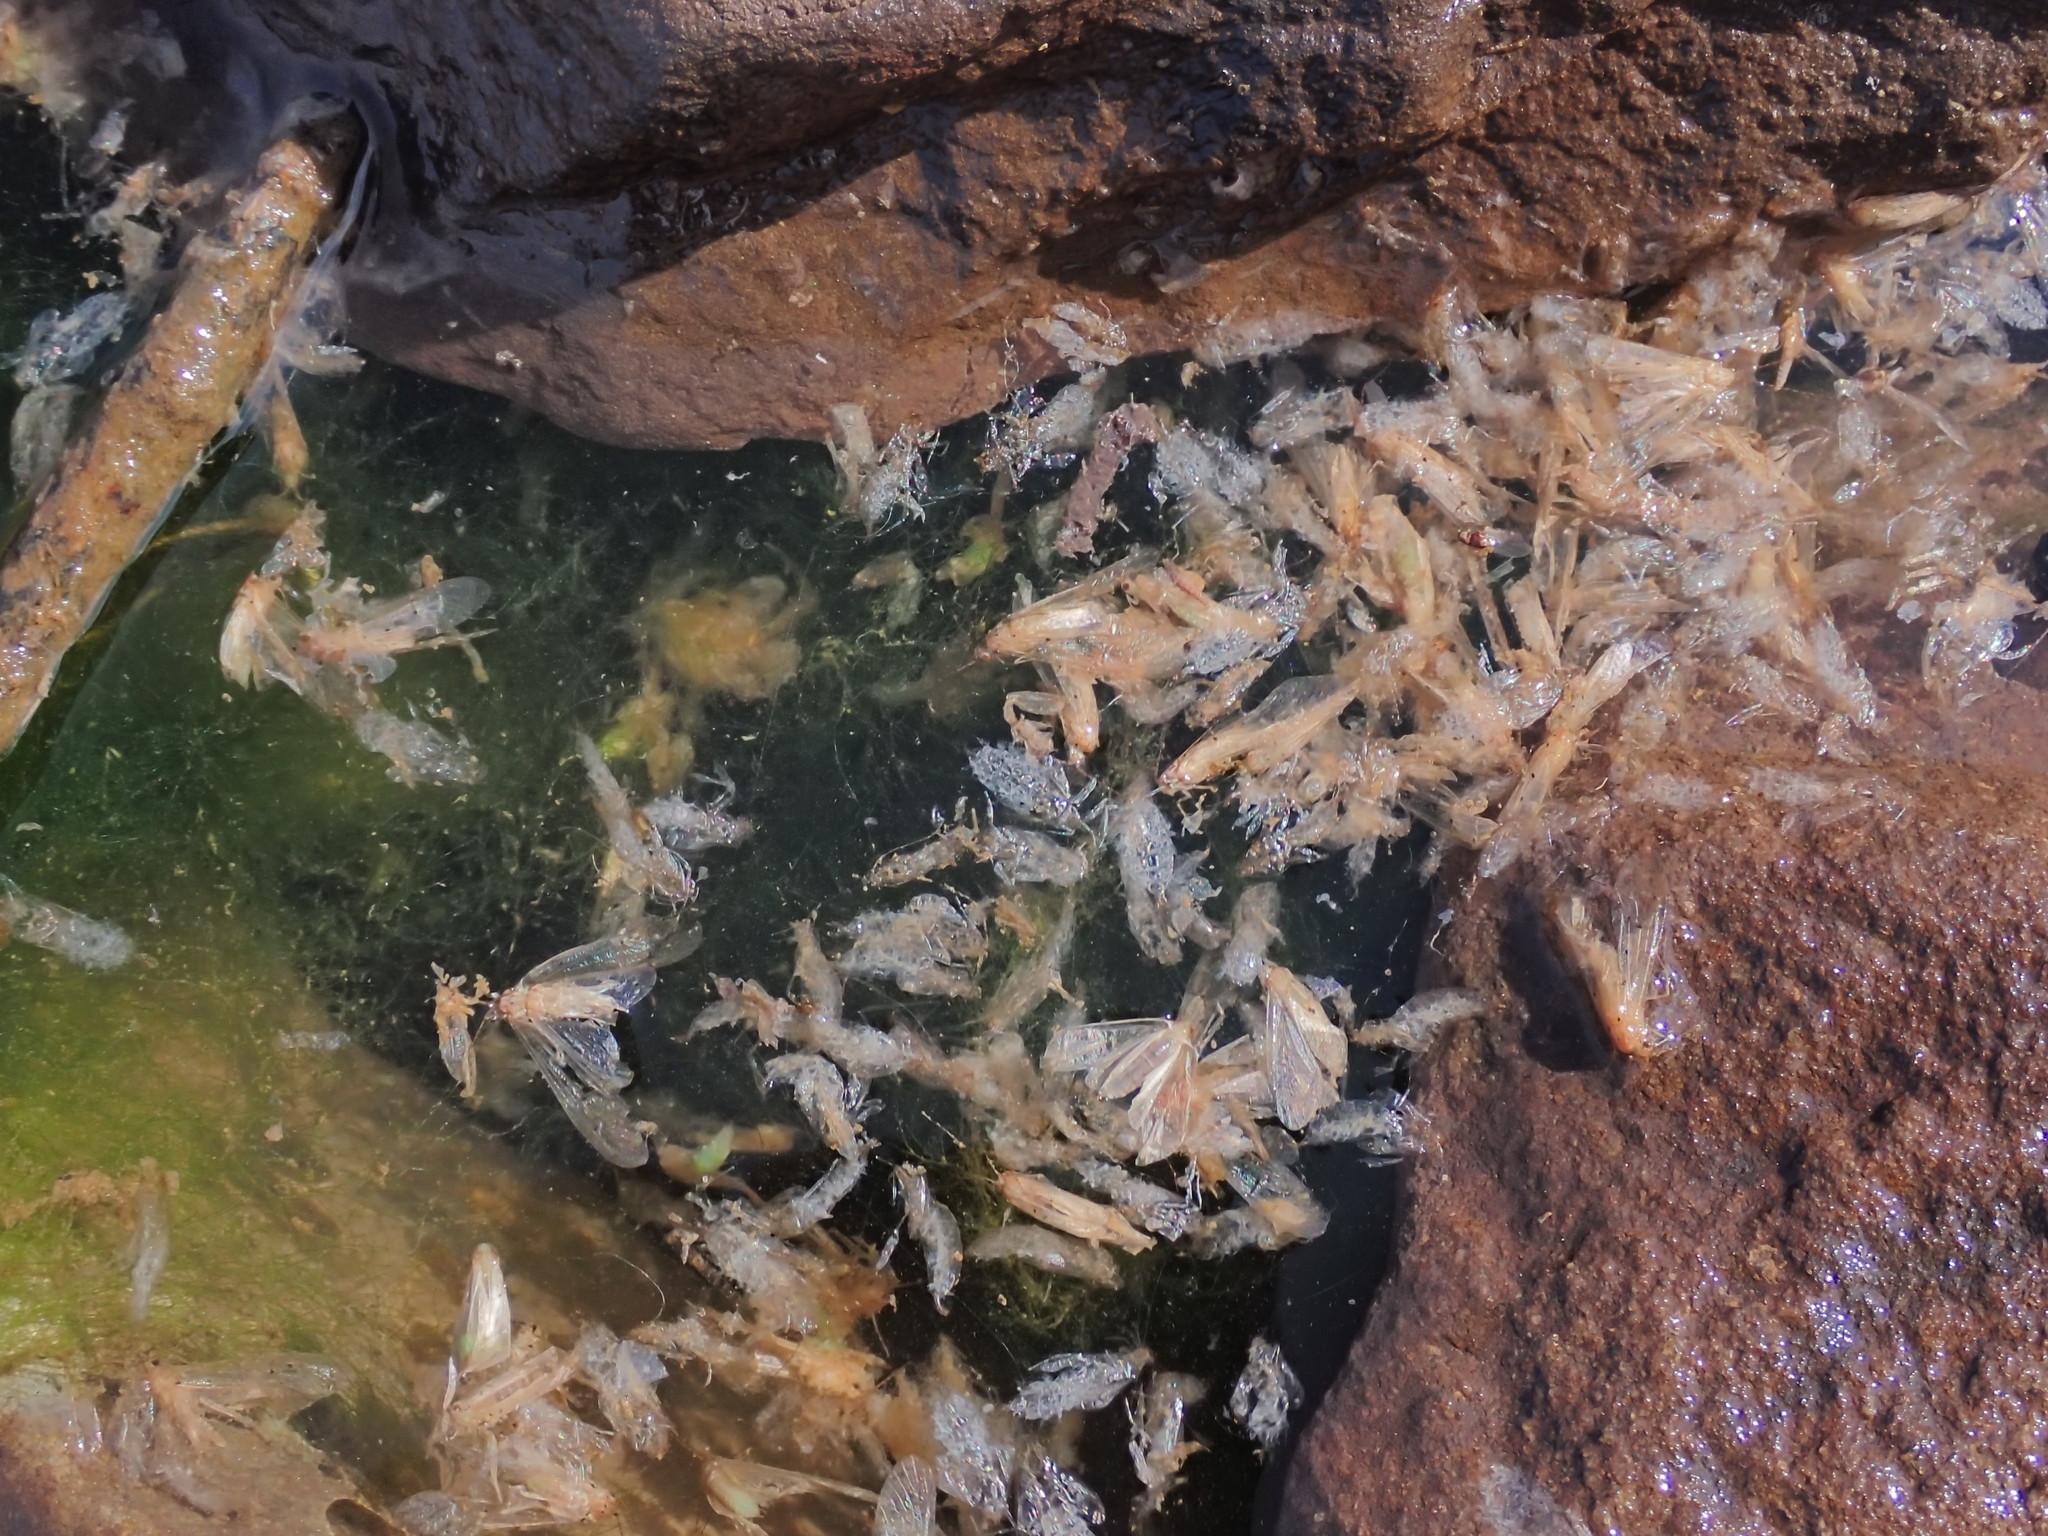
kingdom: Animalia
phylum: Arthropoda
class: Insecta
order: Trichoptera
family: Hydropsychidae
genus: Aethaloptera
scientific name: Aethaloptera sexpunctata
